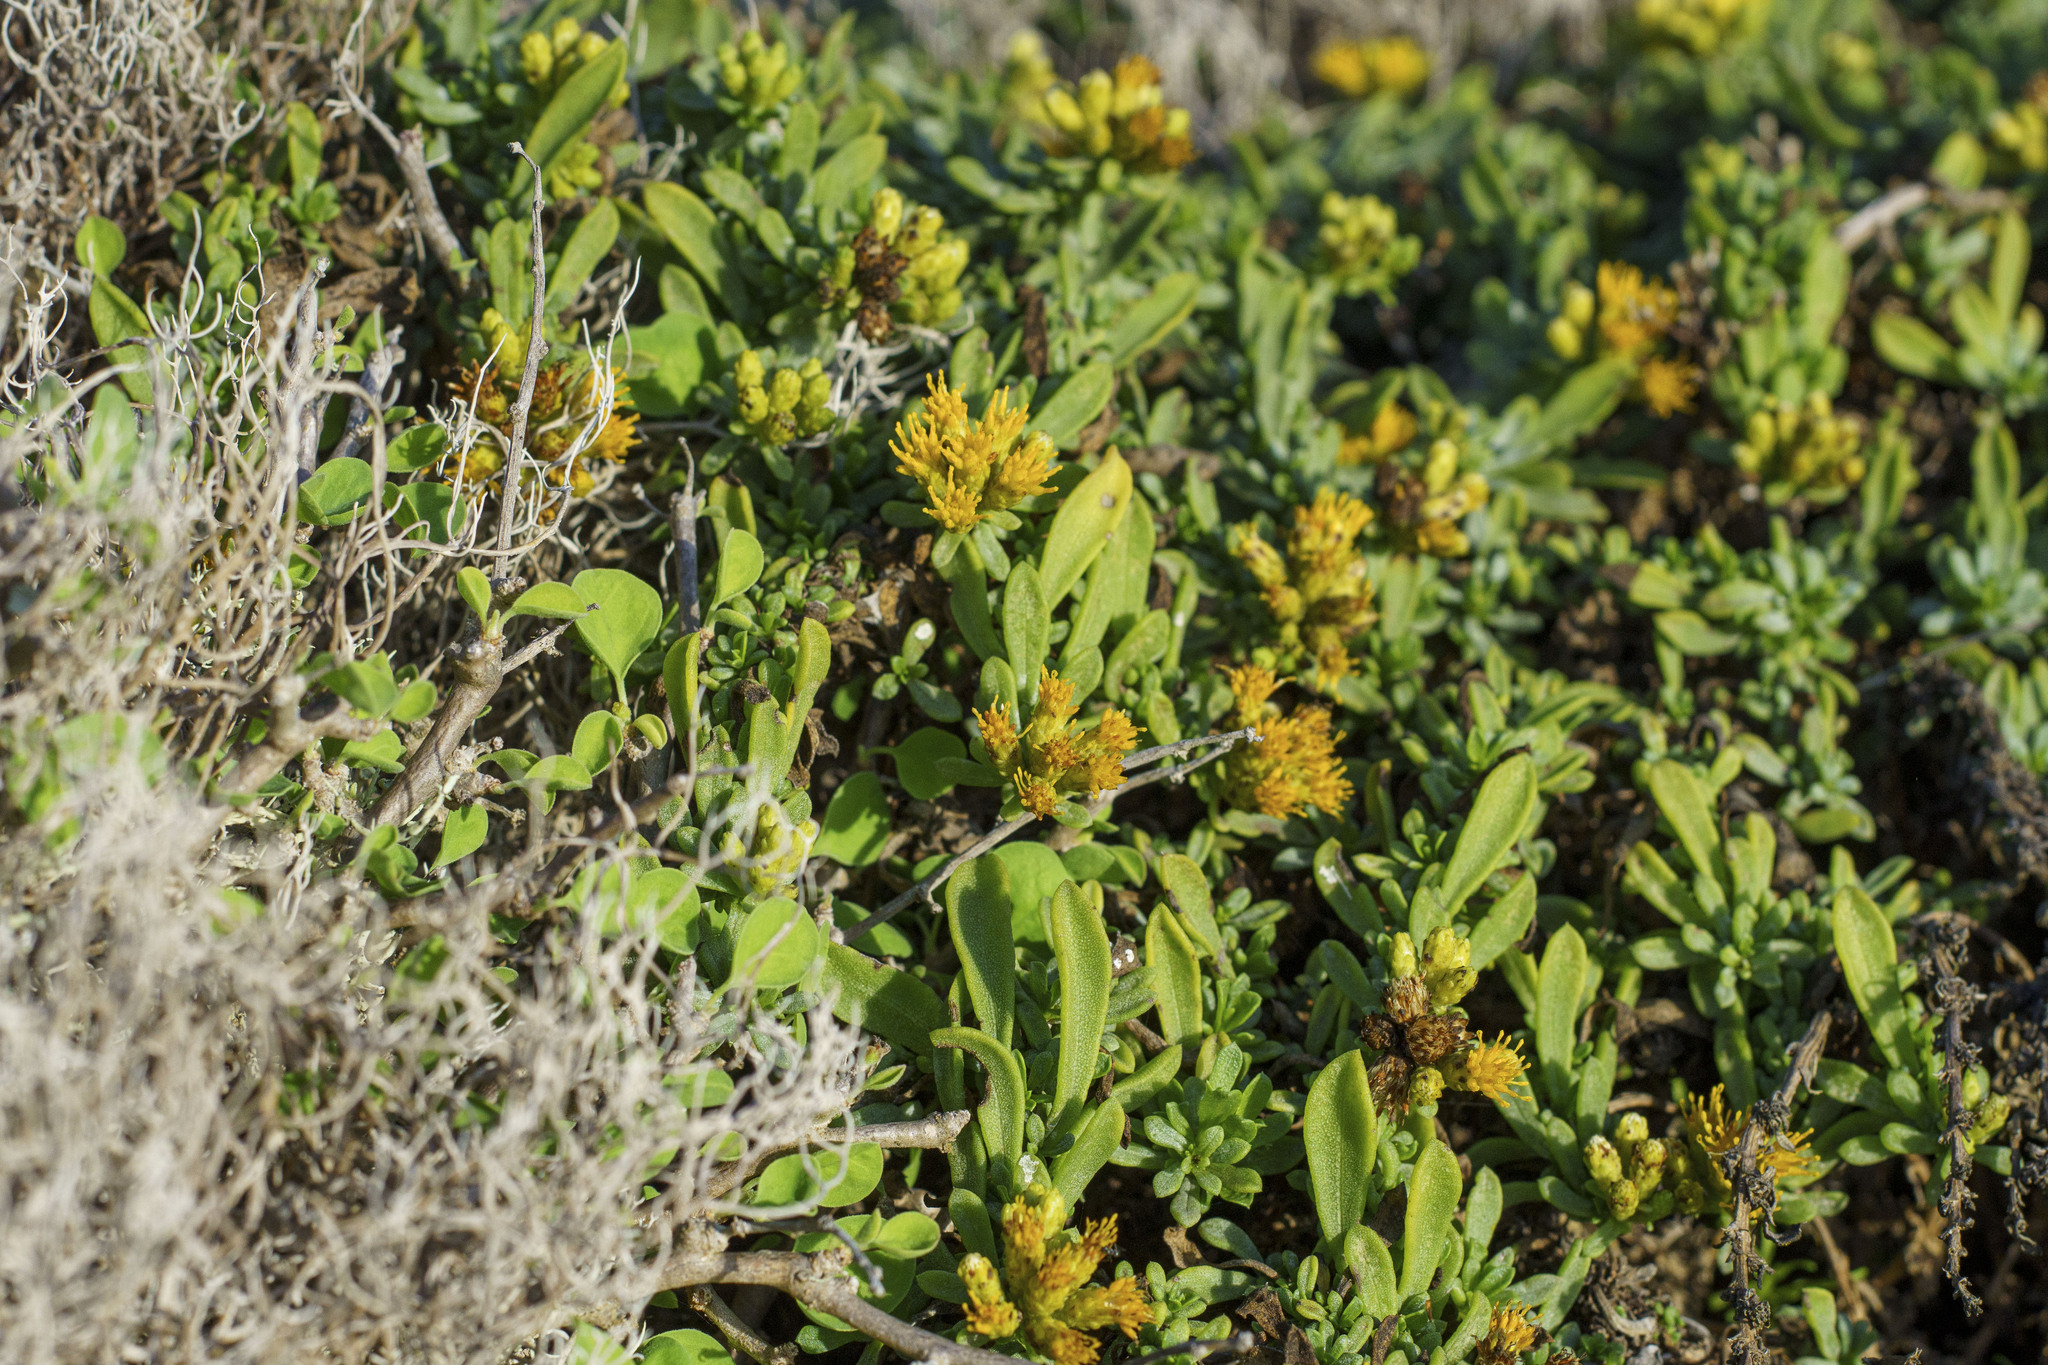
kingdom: Plantae
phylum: Tracheophyta
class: Magnoliopsida
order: Asterales
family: Asteraceae
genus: Isocoma
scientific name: Isocoma menziesii
